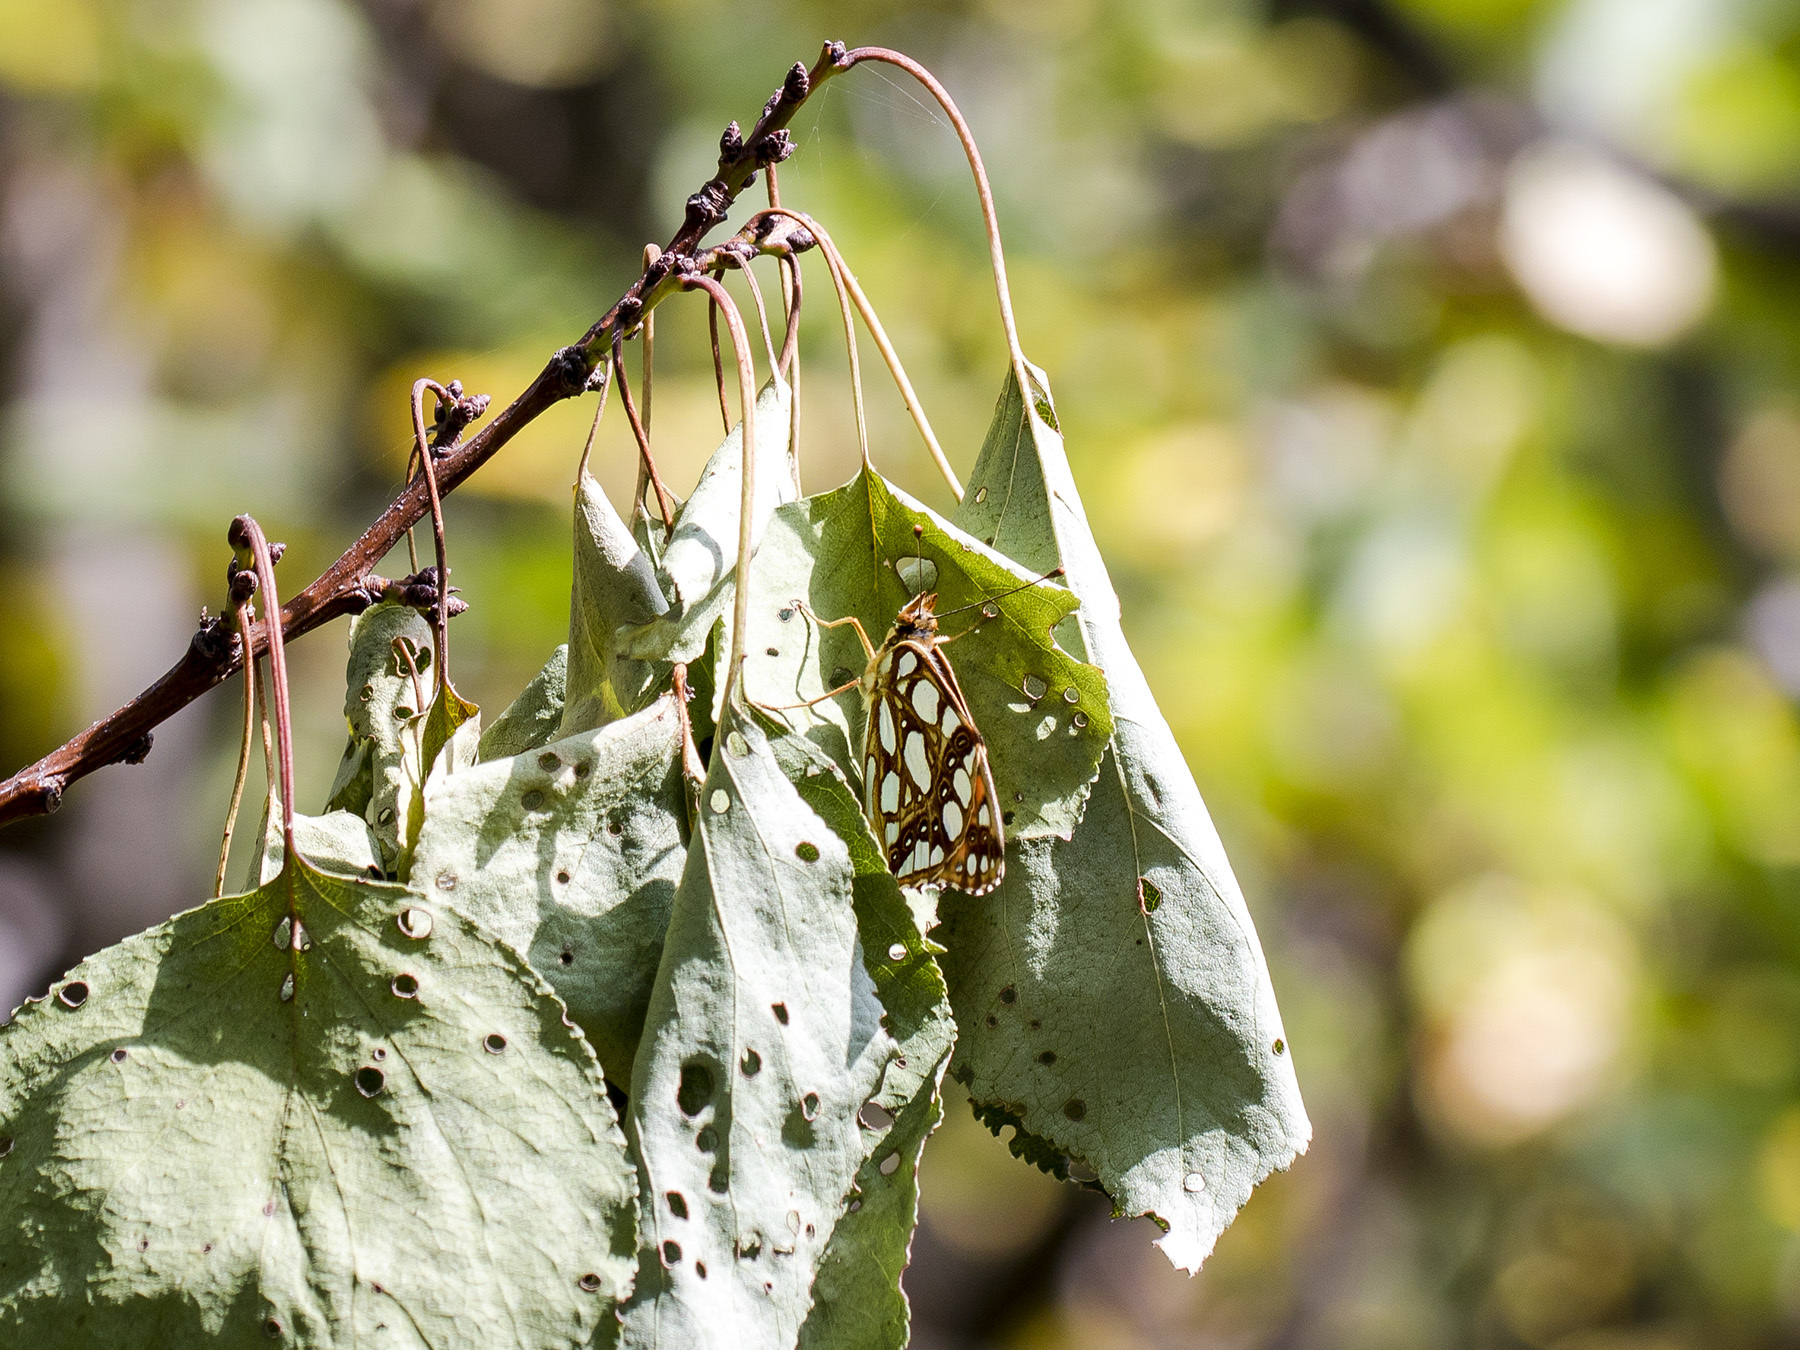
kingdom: Animalia
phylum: Arthropoda
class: Insecta
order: Lepidoptera
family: Nymphalidae
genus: Issoria
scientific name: Issoria lathonia
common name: Queen of spain fritillary
